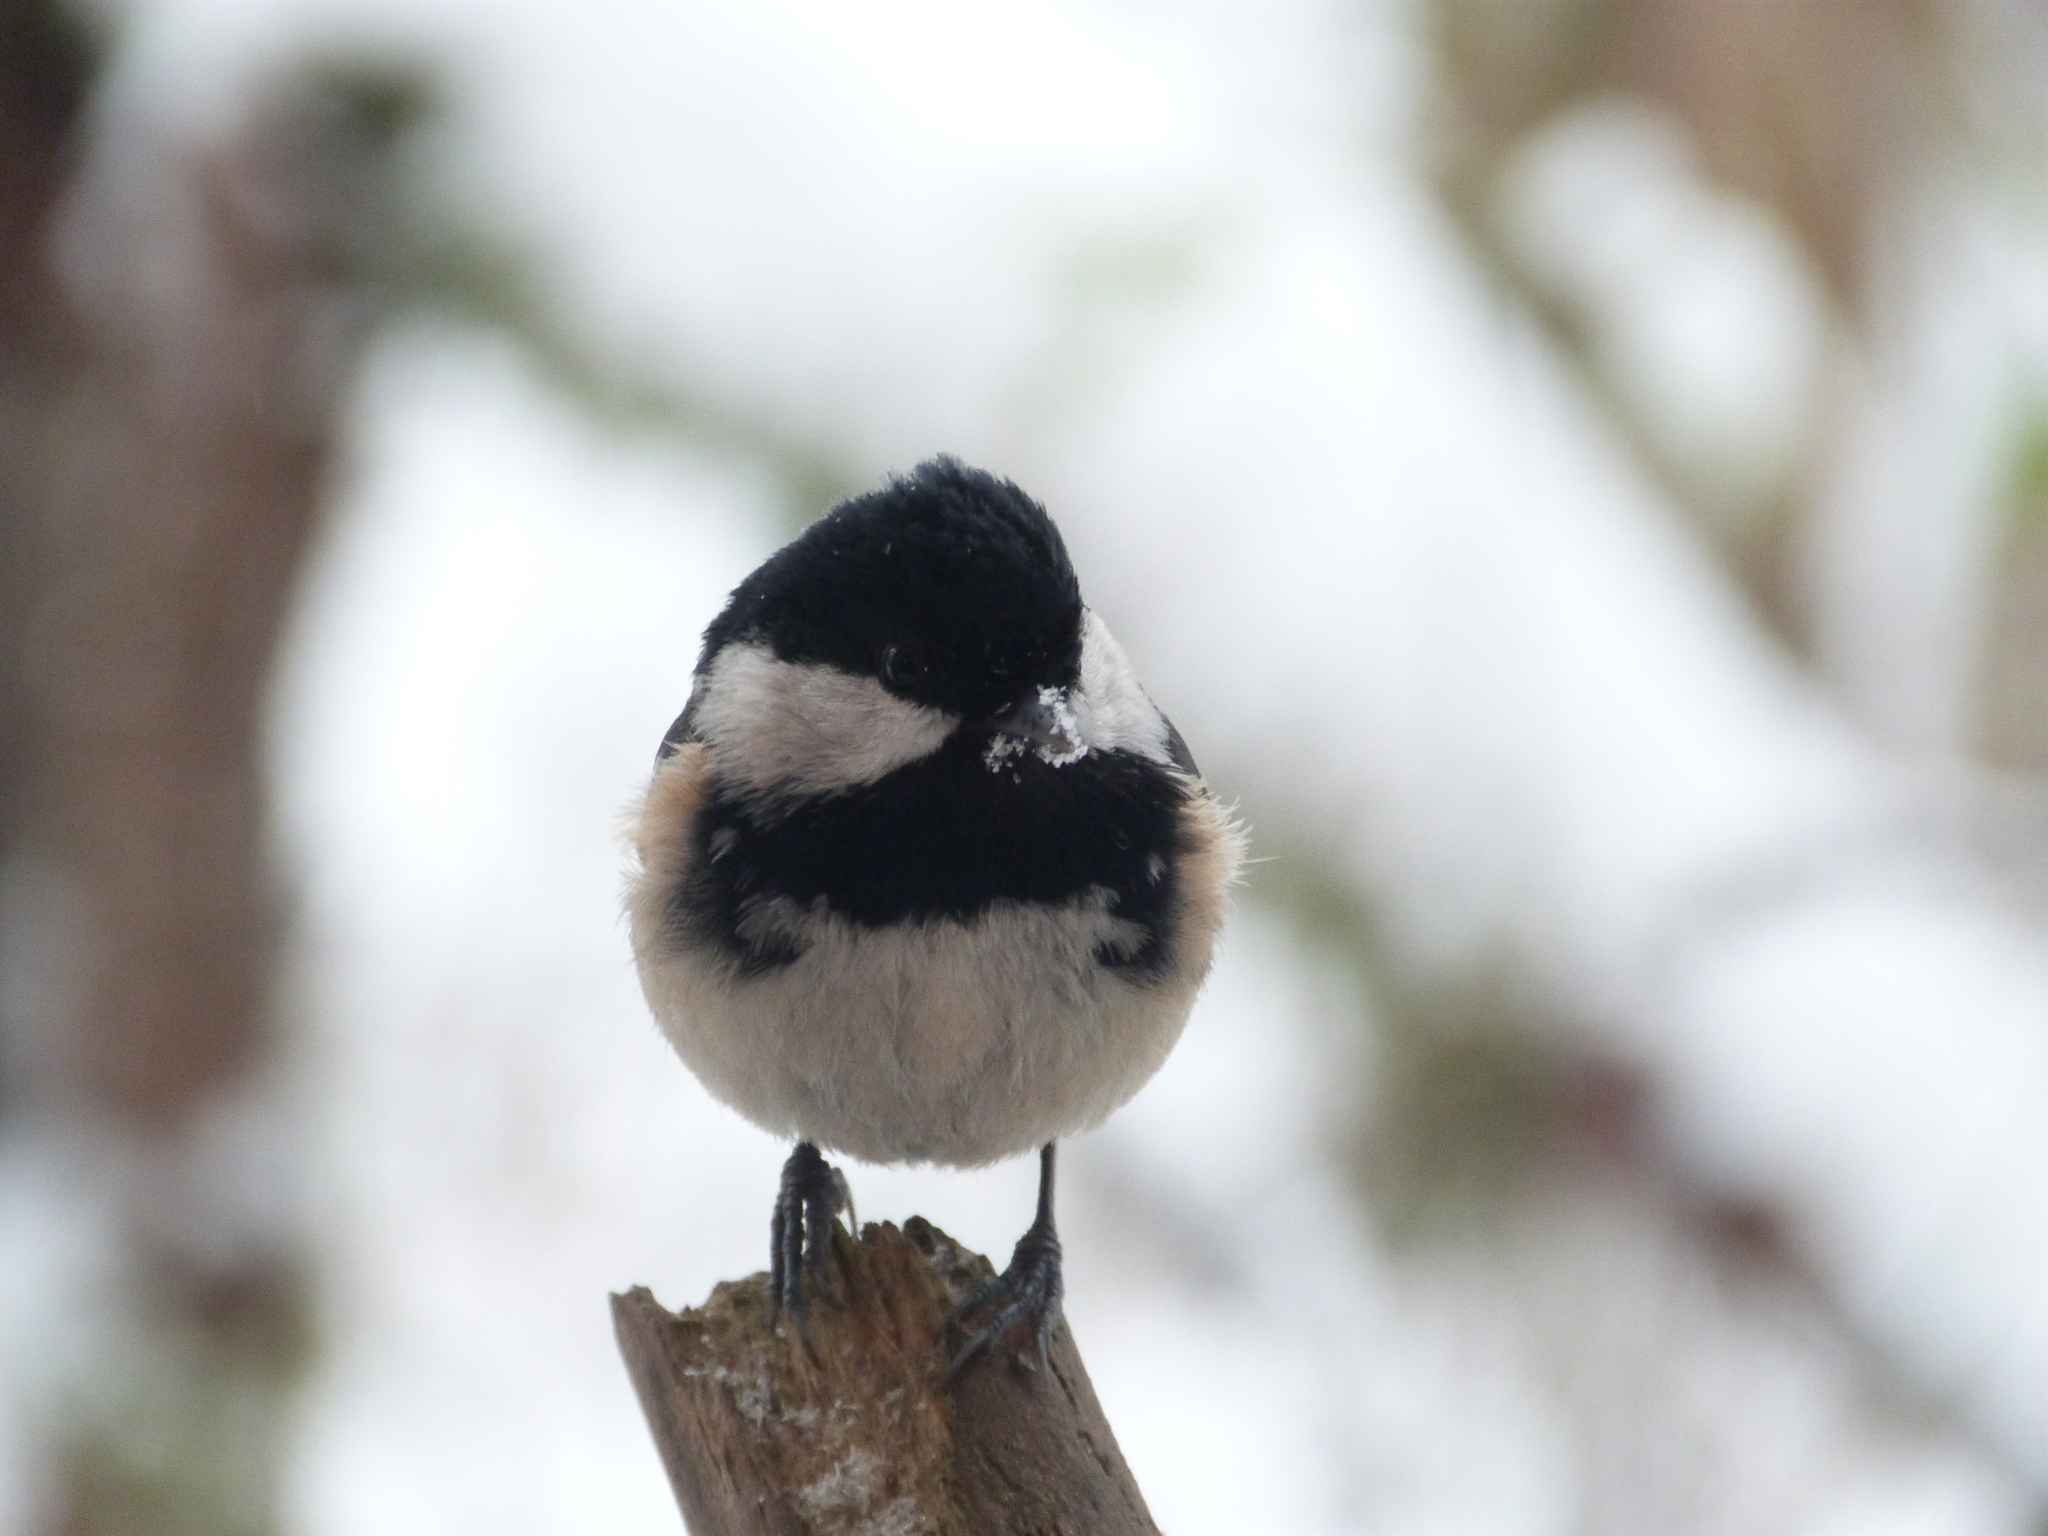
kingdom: Animalia
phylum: Chordata
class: Aves
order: Passeriformes
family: Paridae
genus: Periparus
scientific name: Periparus ater
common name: Coal tit
